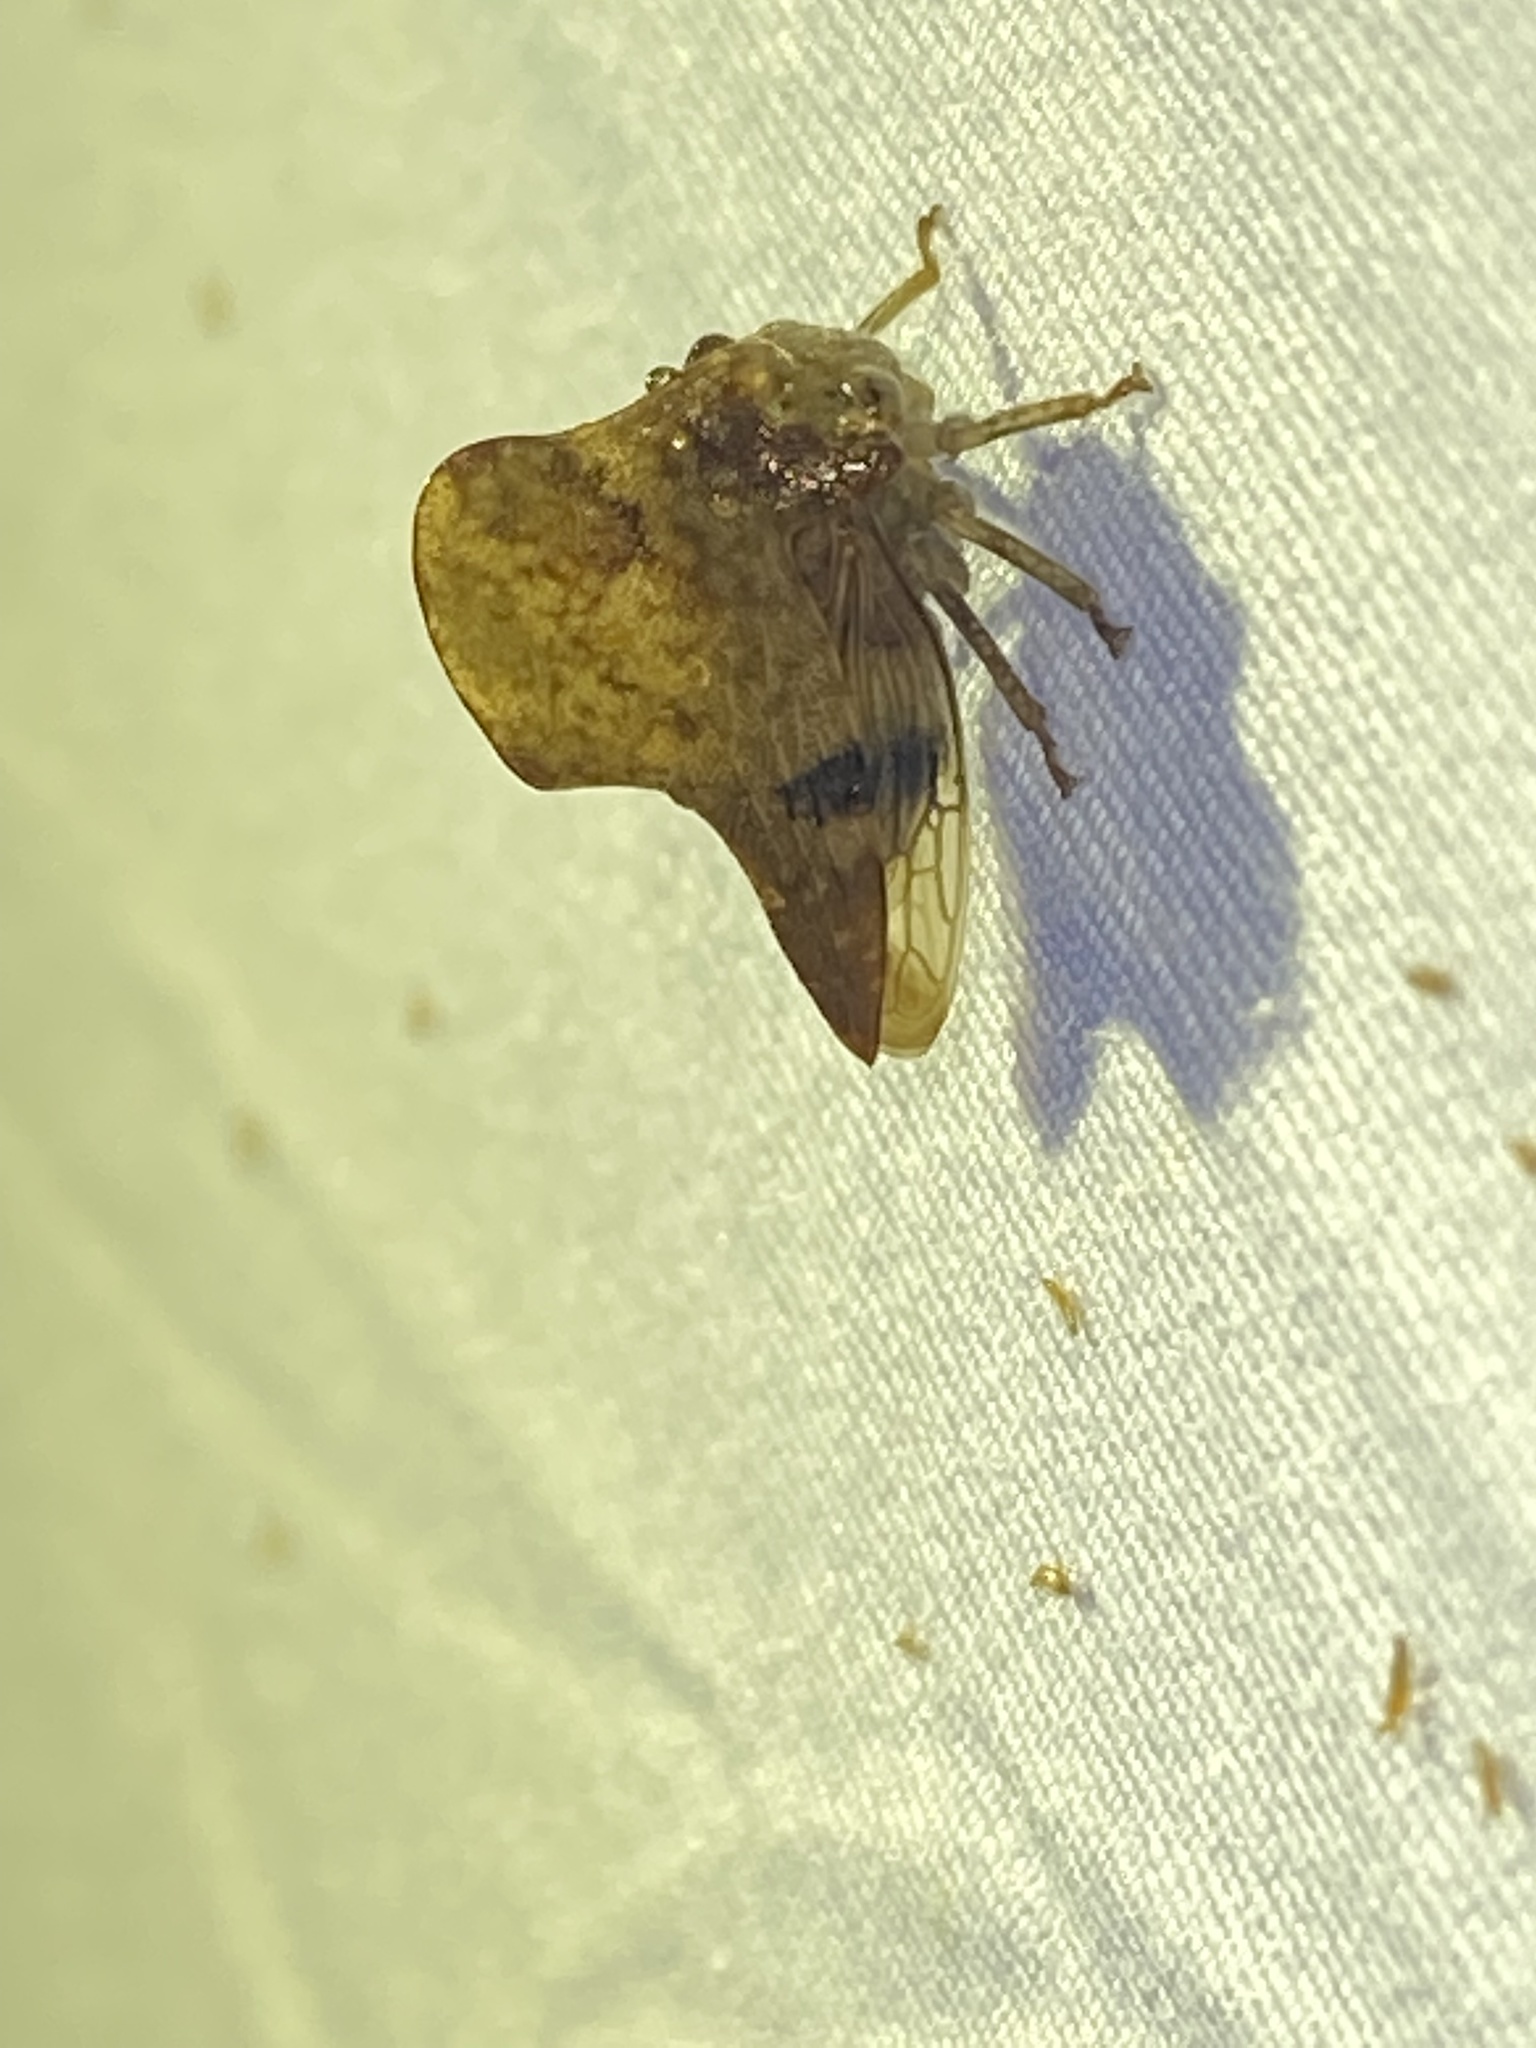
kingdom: Animalia
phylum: Arthropoda
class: Insecta
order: Hemiptera
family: Membracidae
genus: Telamona
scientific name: Telamona maculata
